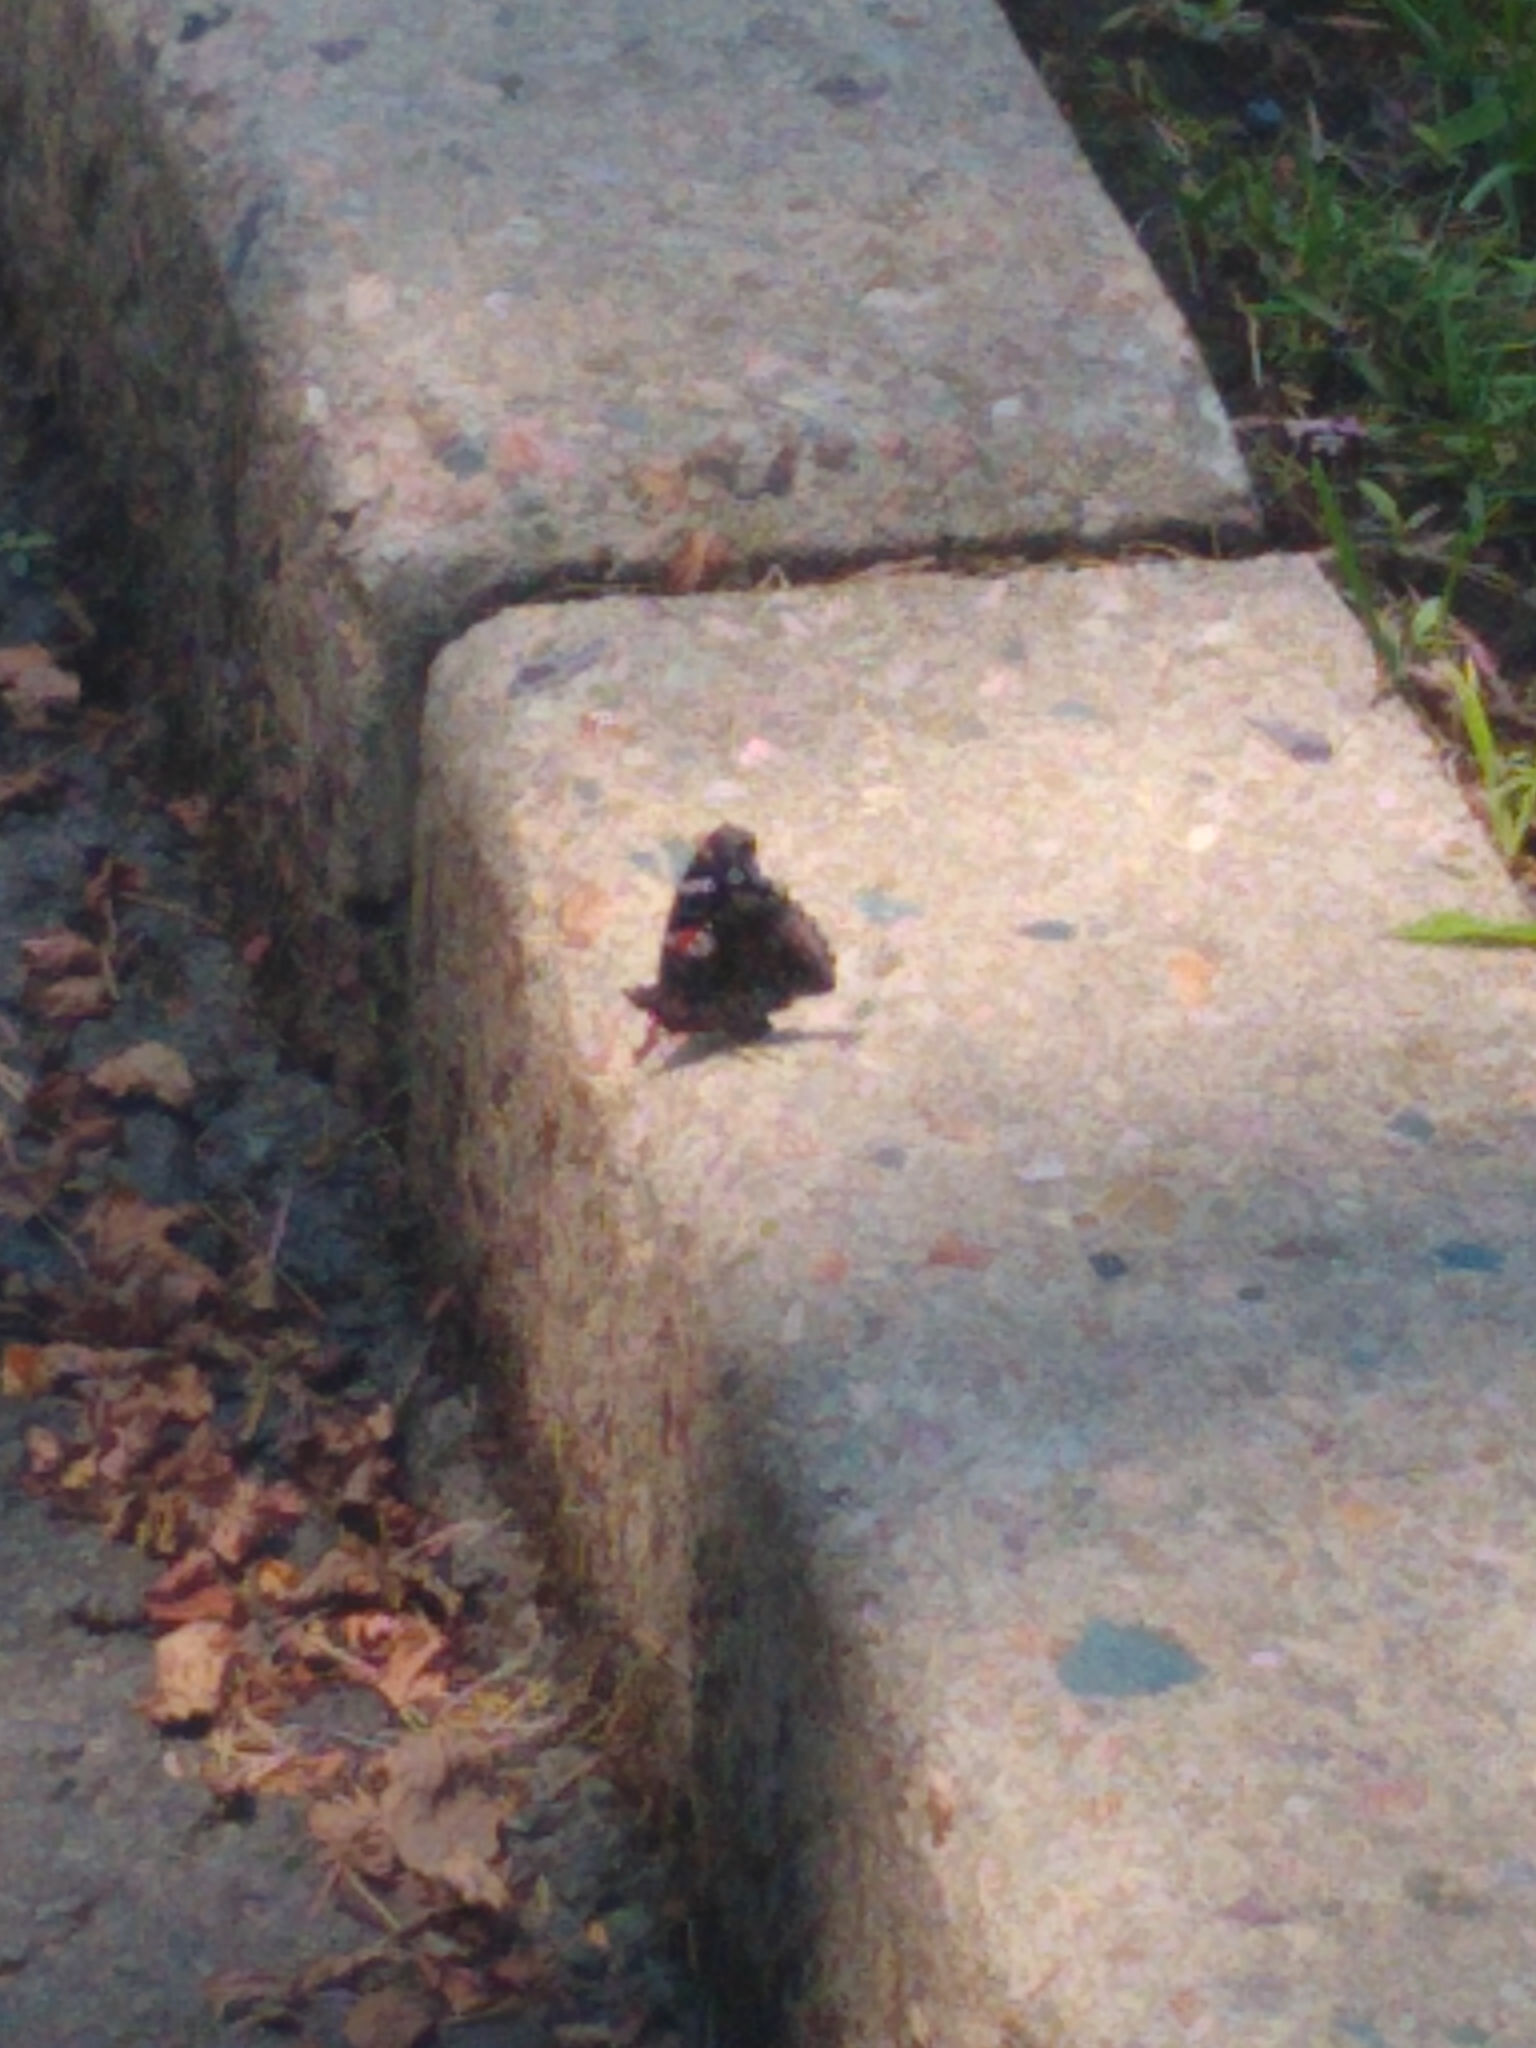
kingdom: Animalia
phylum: Arthropoda
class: Insecta
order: Lepidoptera
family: Nymphalidae
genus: Vanessa
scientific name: Vanessa atalanta
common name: Red admiral
